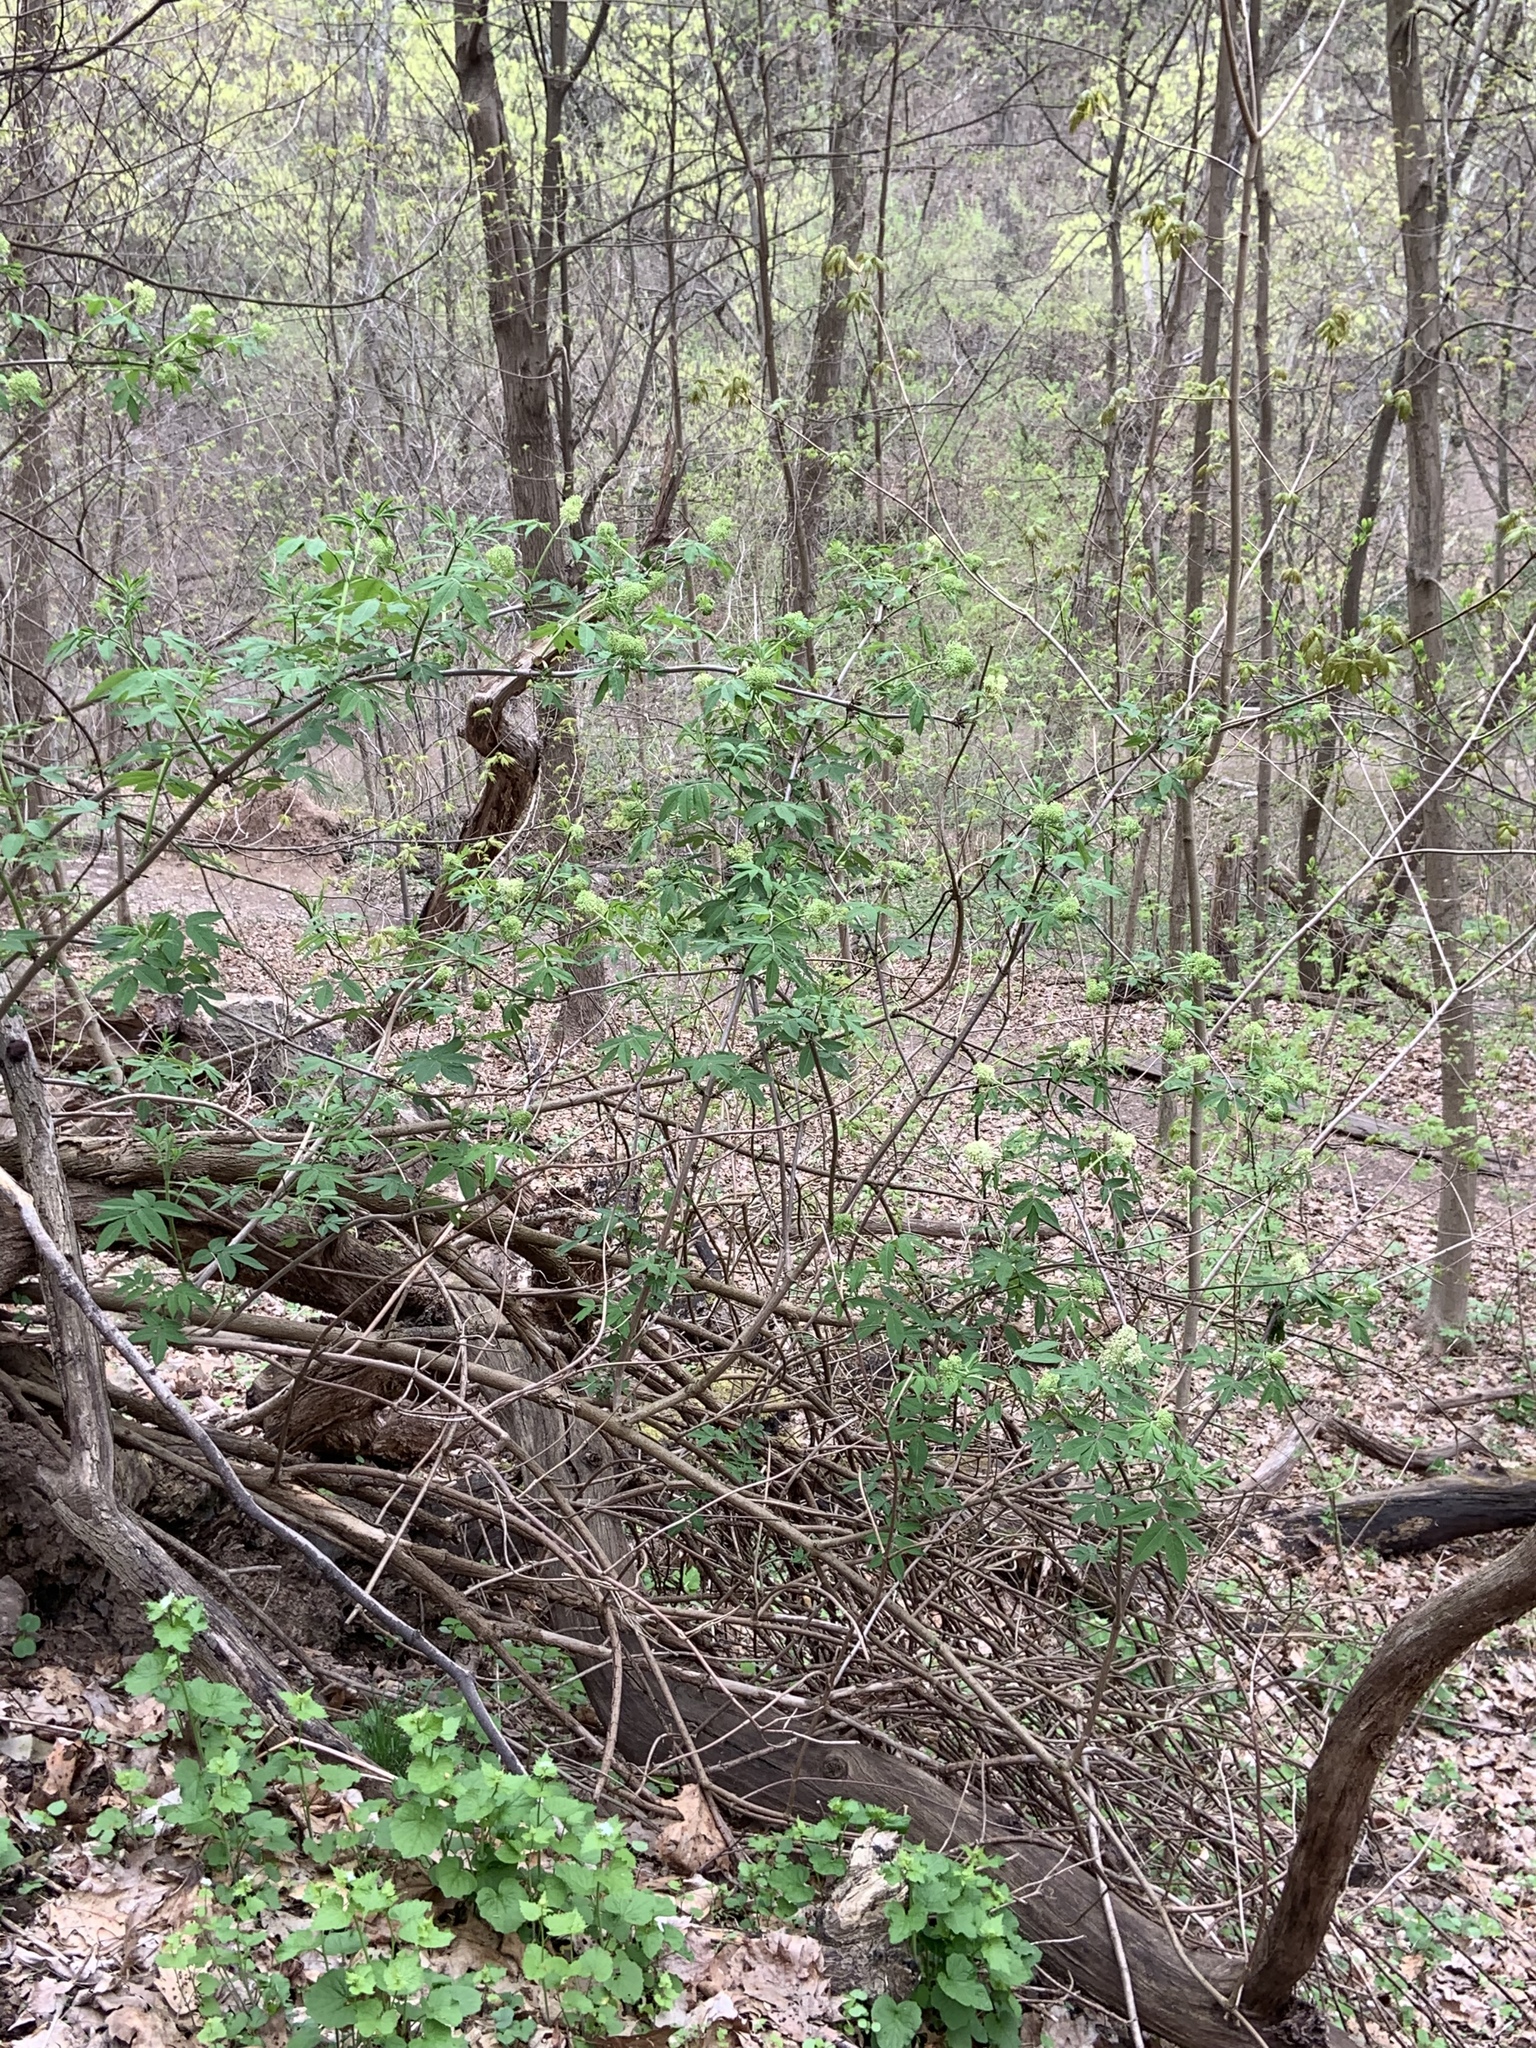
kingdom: Plantae
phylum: Tracheophyta
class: Magnoliopsida
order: Dipsacales
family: Viburnaceae
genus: Sambucus
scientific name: Sambucus racemosa
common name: Red-berried elder
